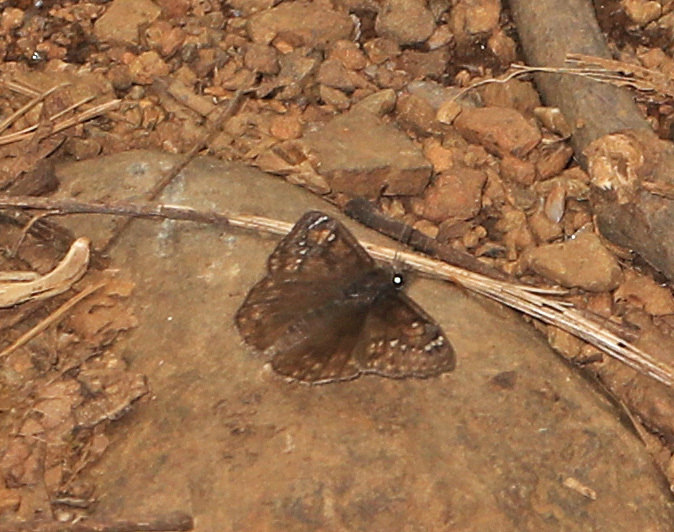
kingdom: Animalia
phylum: Arthropoda
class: Insecta
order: Lepidoptera
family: Hesperiidae
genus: Erynnis
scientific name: Erynnis juvenalis
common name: Juvenal's duskywing
